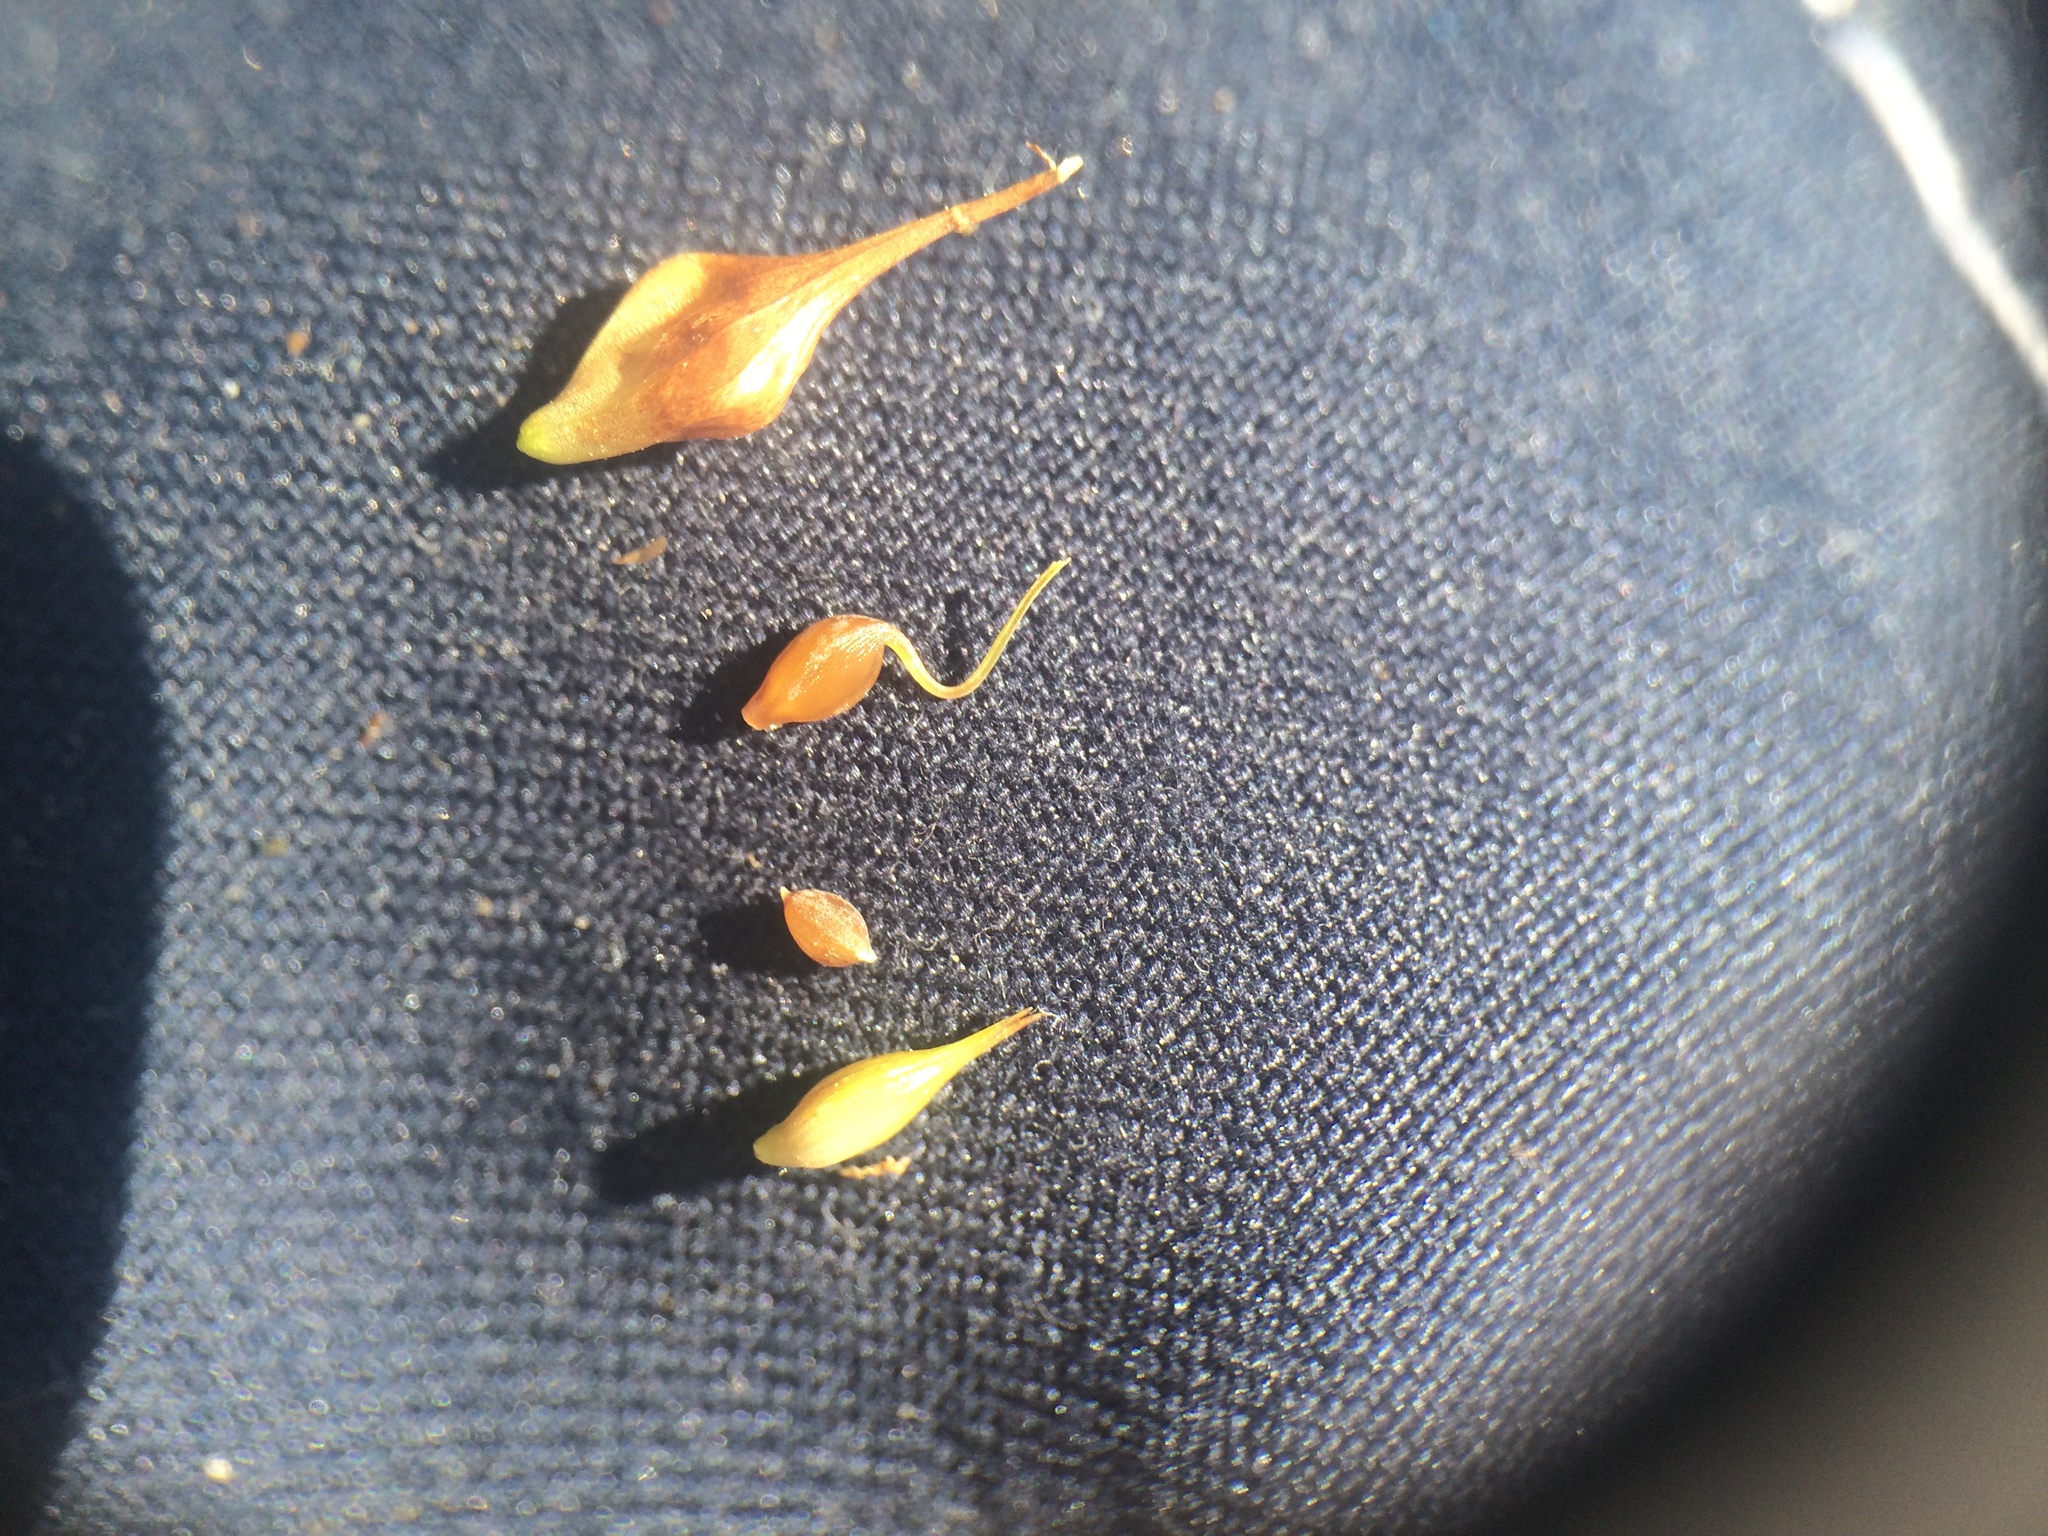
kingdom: Plantae
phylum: Tracheophyta
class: Liliopsida
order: Poales
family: Cyperaceae
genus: Carex
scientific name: Carex pseudocyperus
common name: Cyperus sedge
